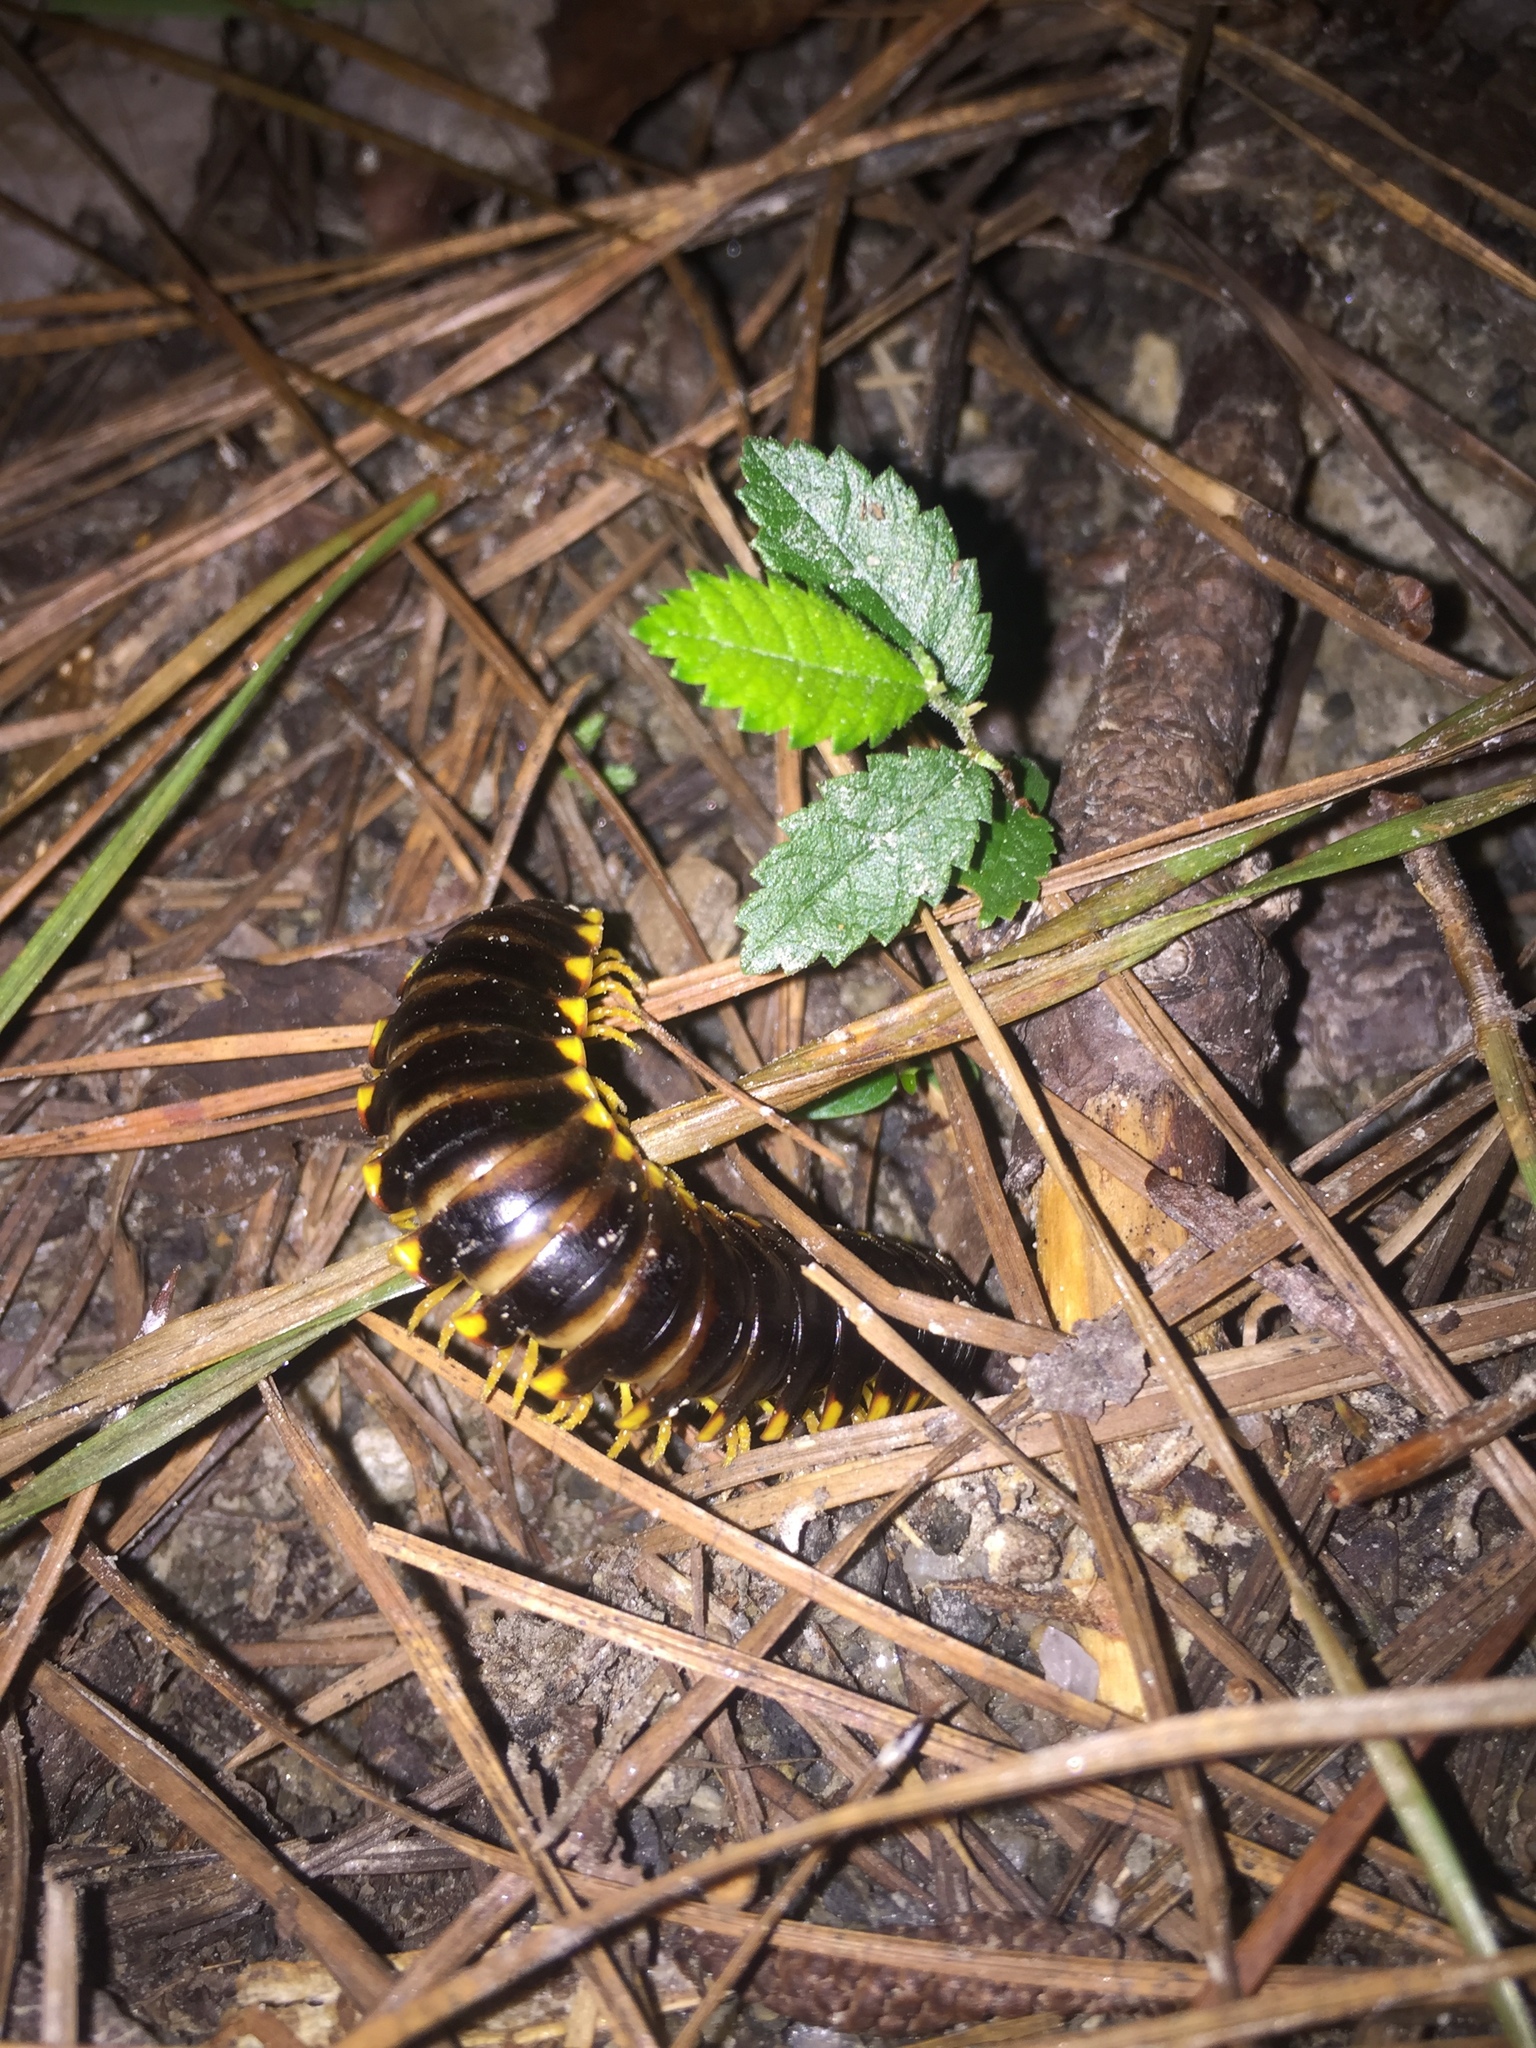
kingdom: Animalia
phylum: Arthropoda
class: Diplopoda
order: Polydesmida
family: Xystodesmidae
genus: Apheloria
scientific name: Apheloria tigana
